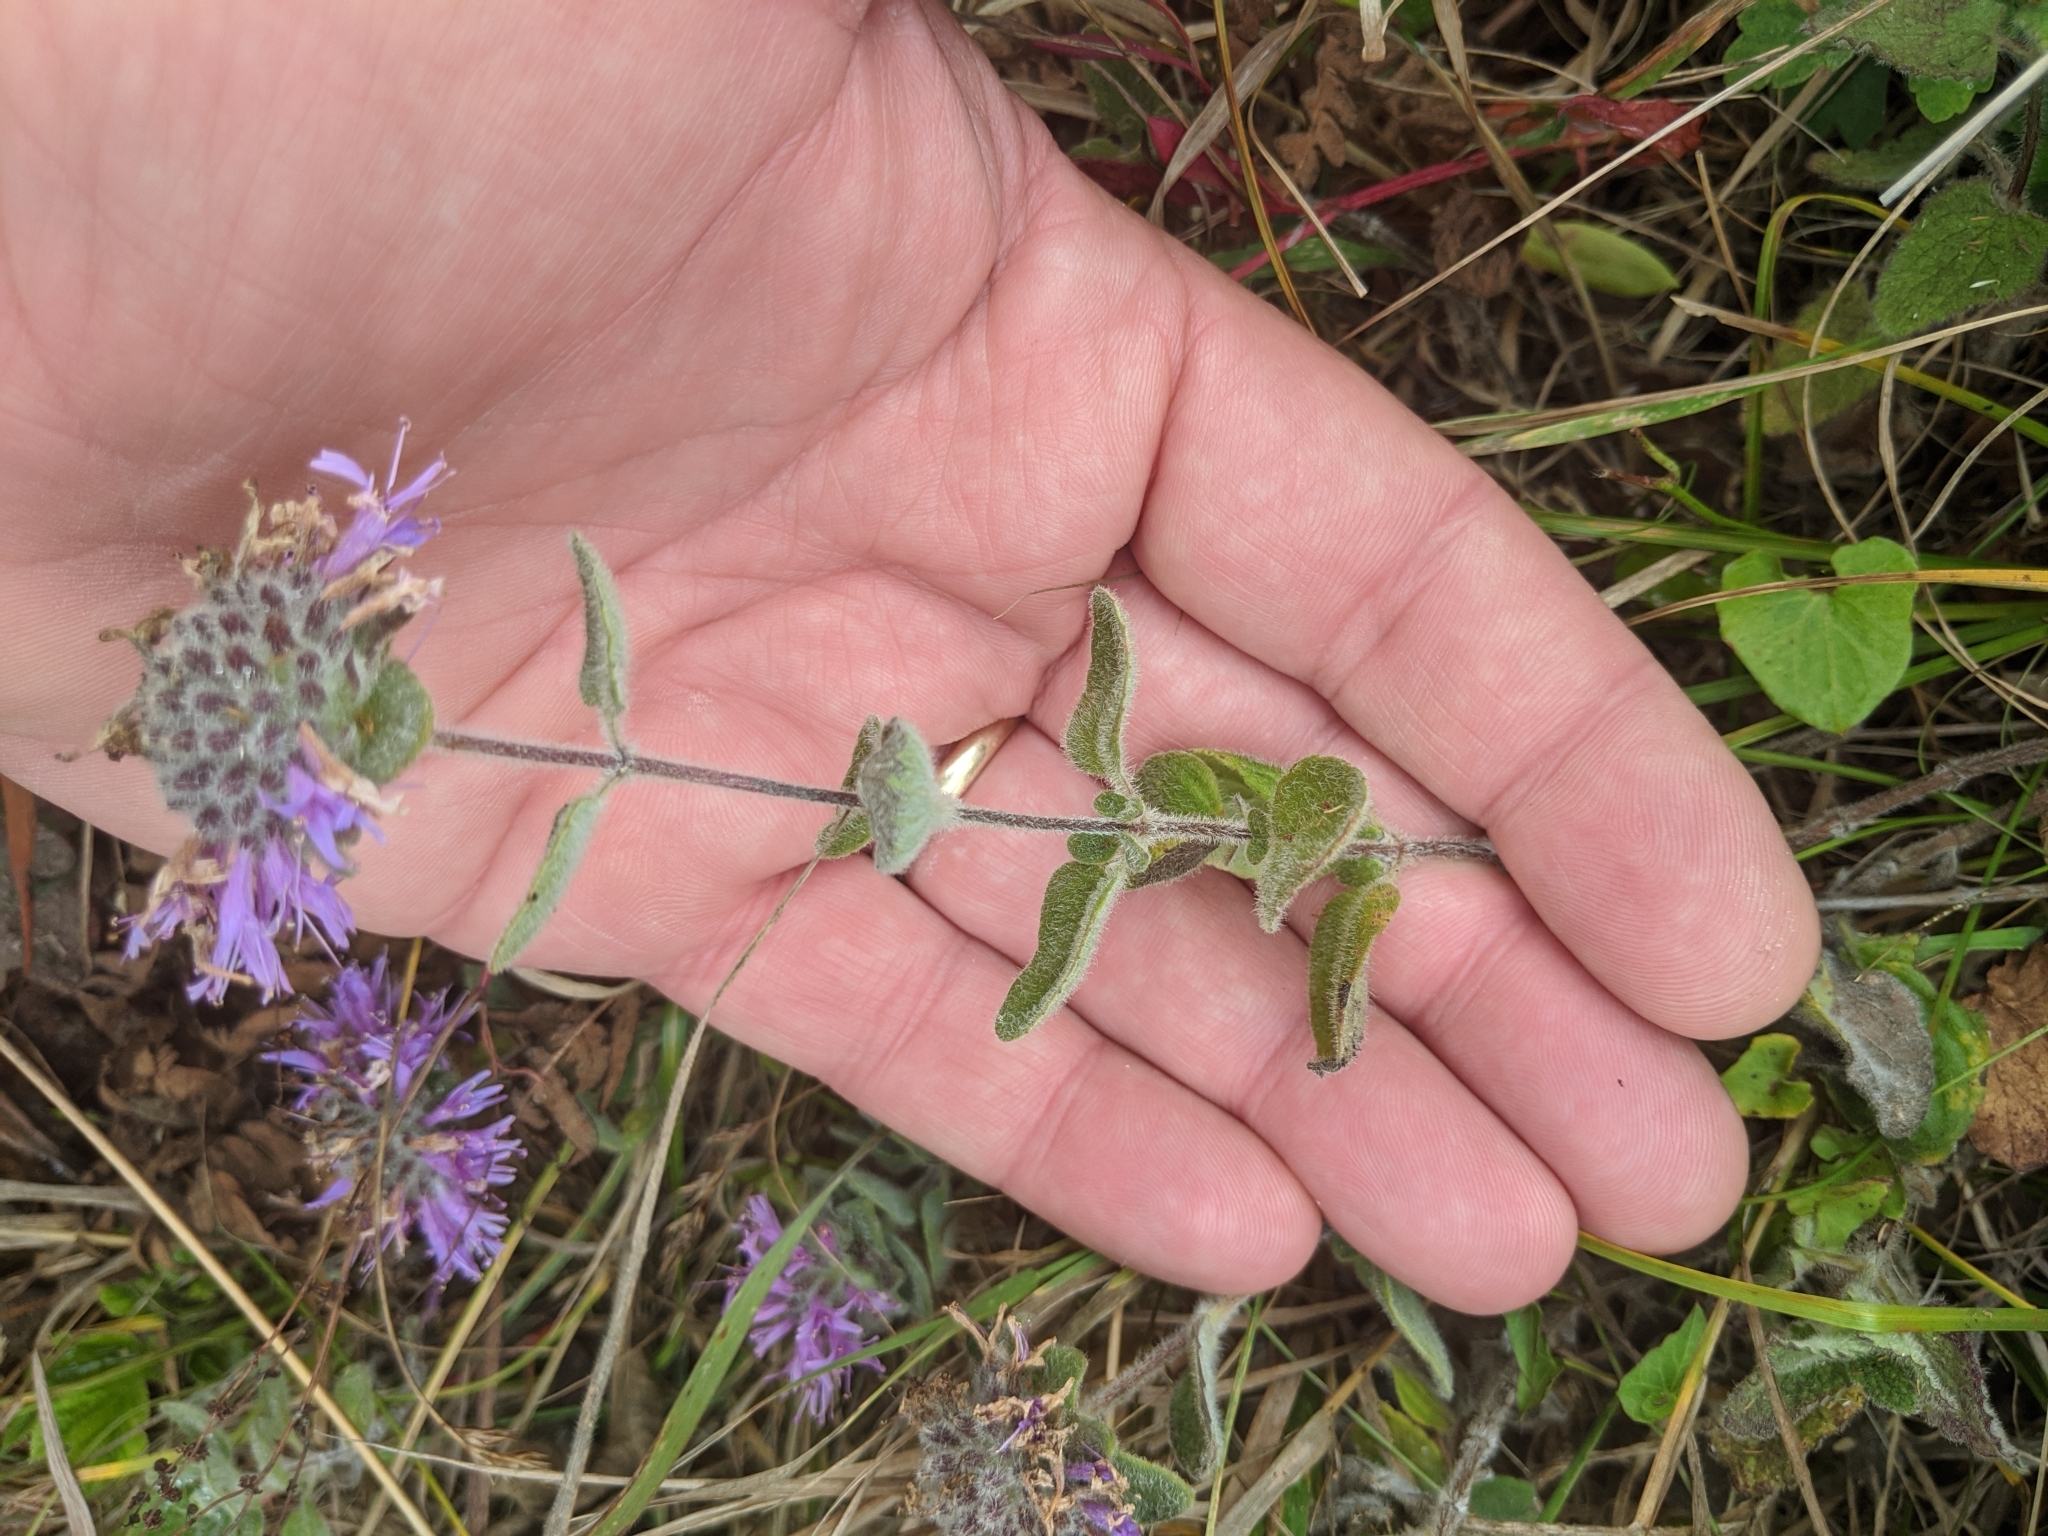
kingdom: Plantae
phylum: Tracheophyta
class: Magnoliopsida
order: Lamiales
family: Lamiaceae
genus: Monardella
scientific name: Monardella odoratissima
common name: Pacific monardella
